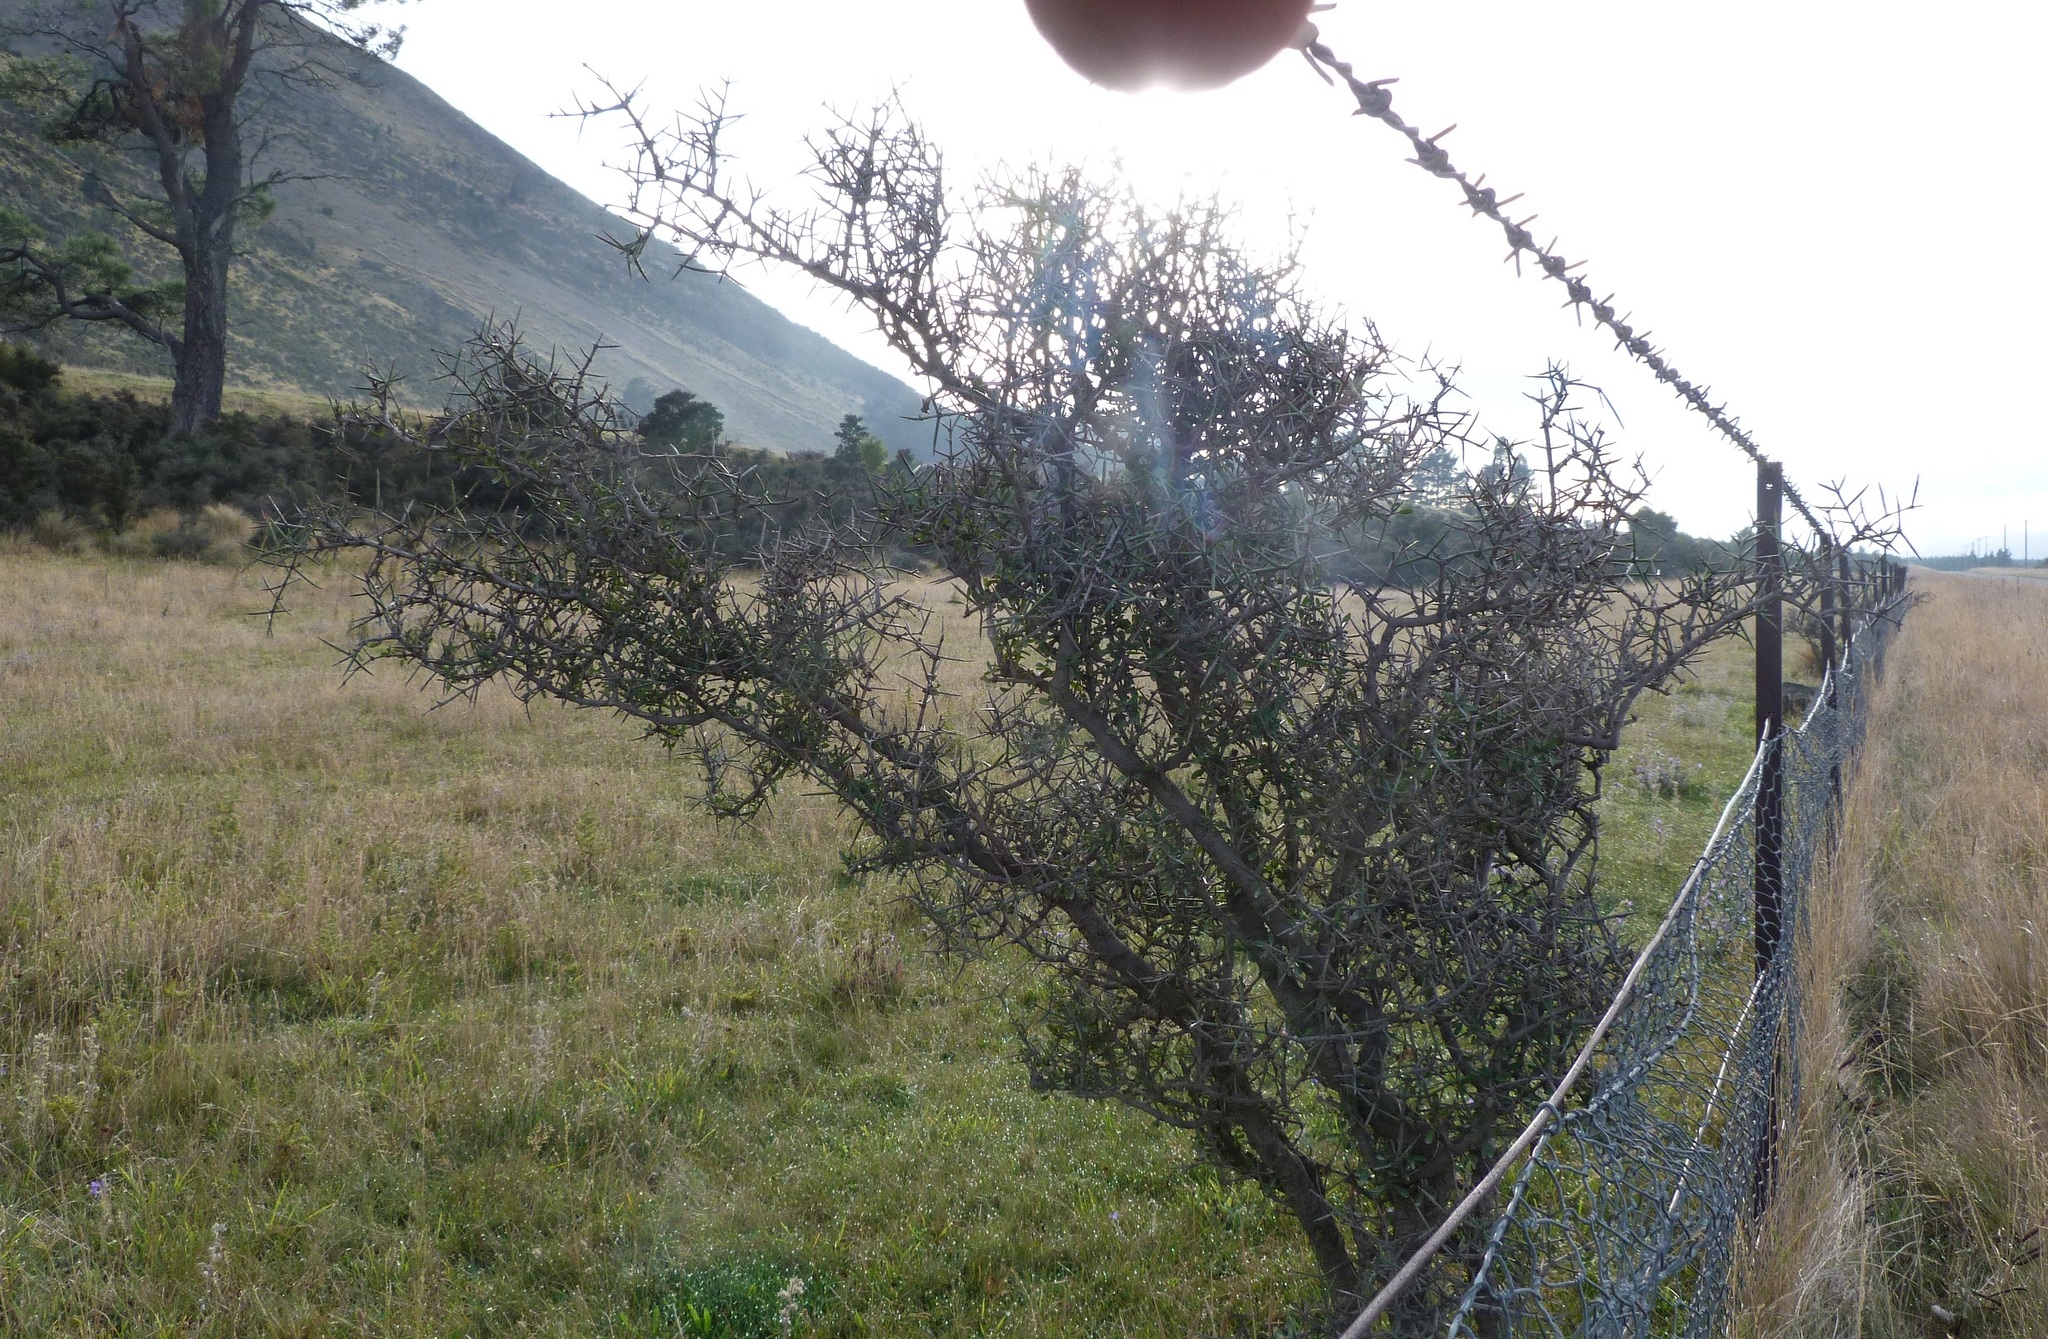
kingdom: Plantae
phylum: Tracheophyta
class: Magnoliopsida
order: Rosales
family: Rhamnaceae
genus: Discaria
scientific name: Discaria toumatou
